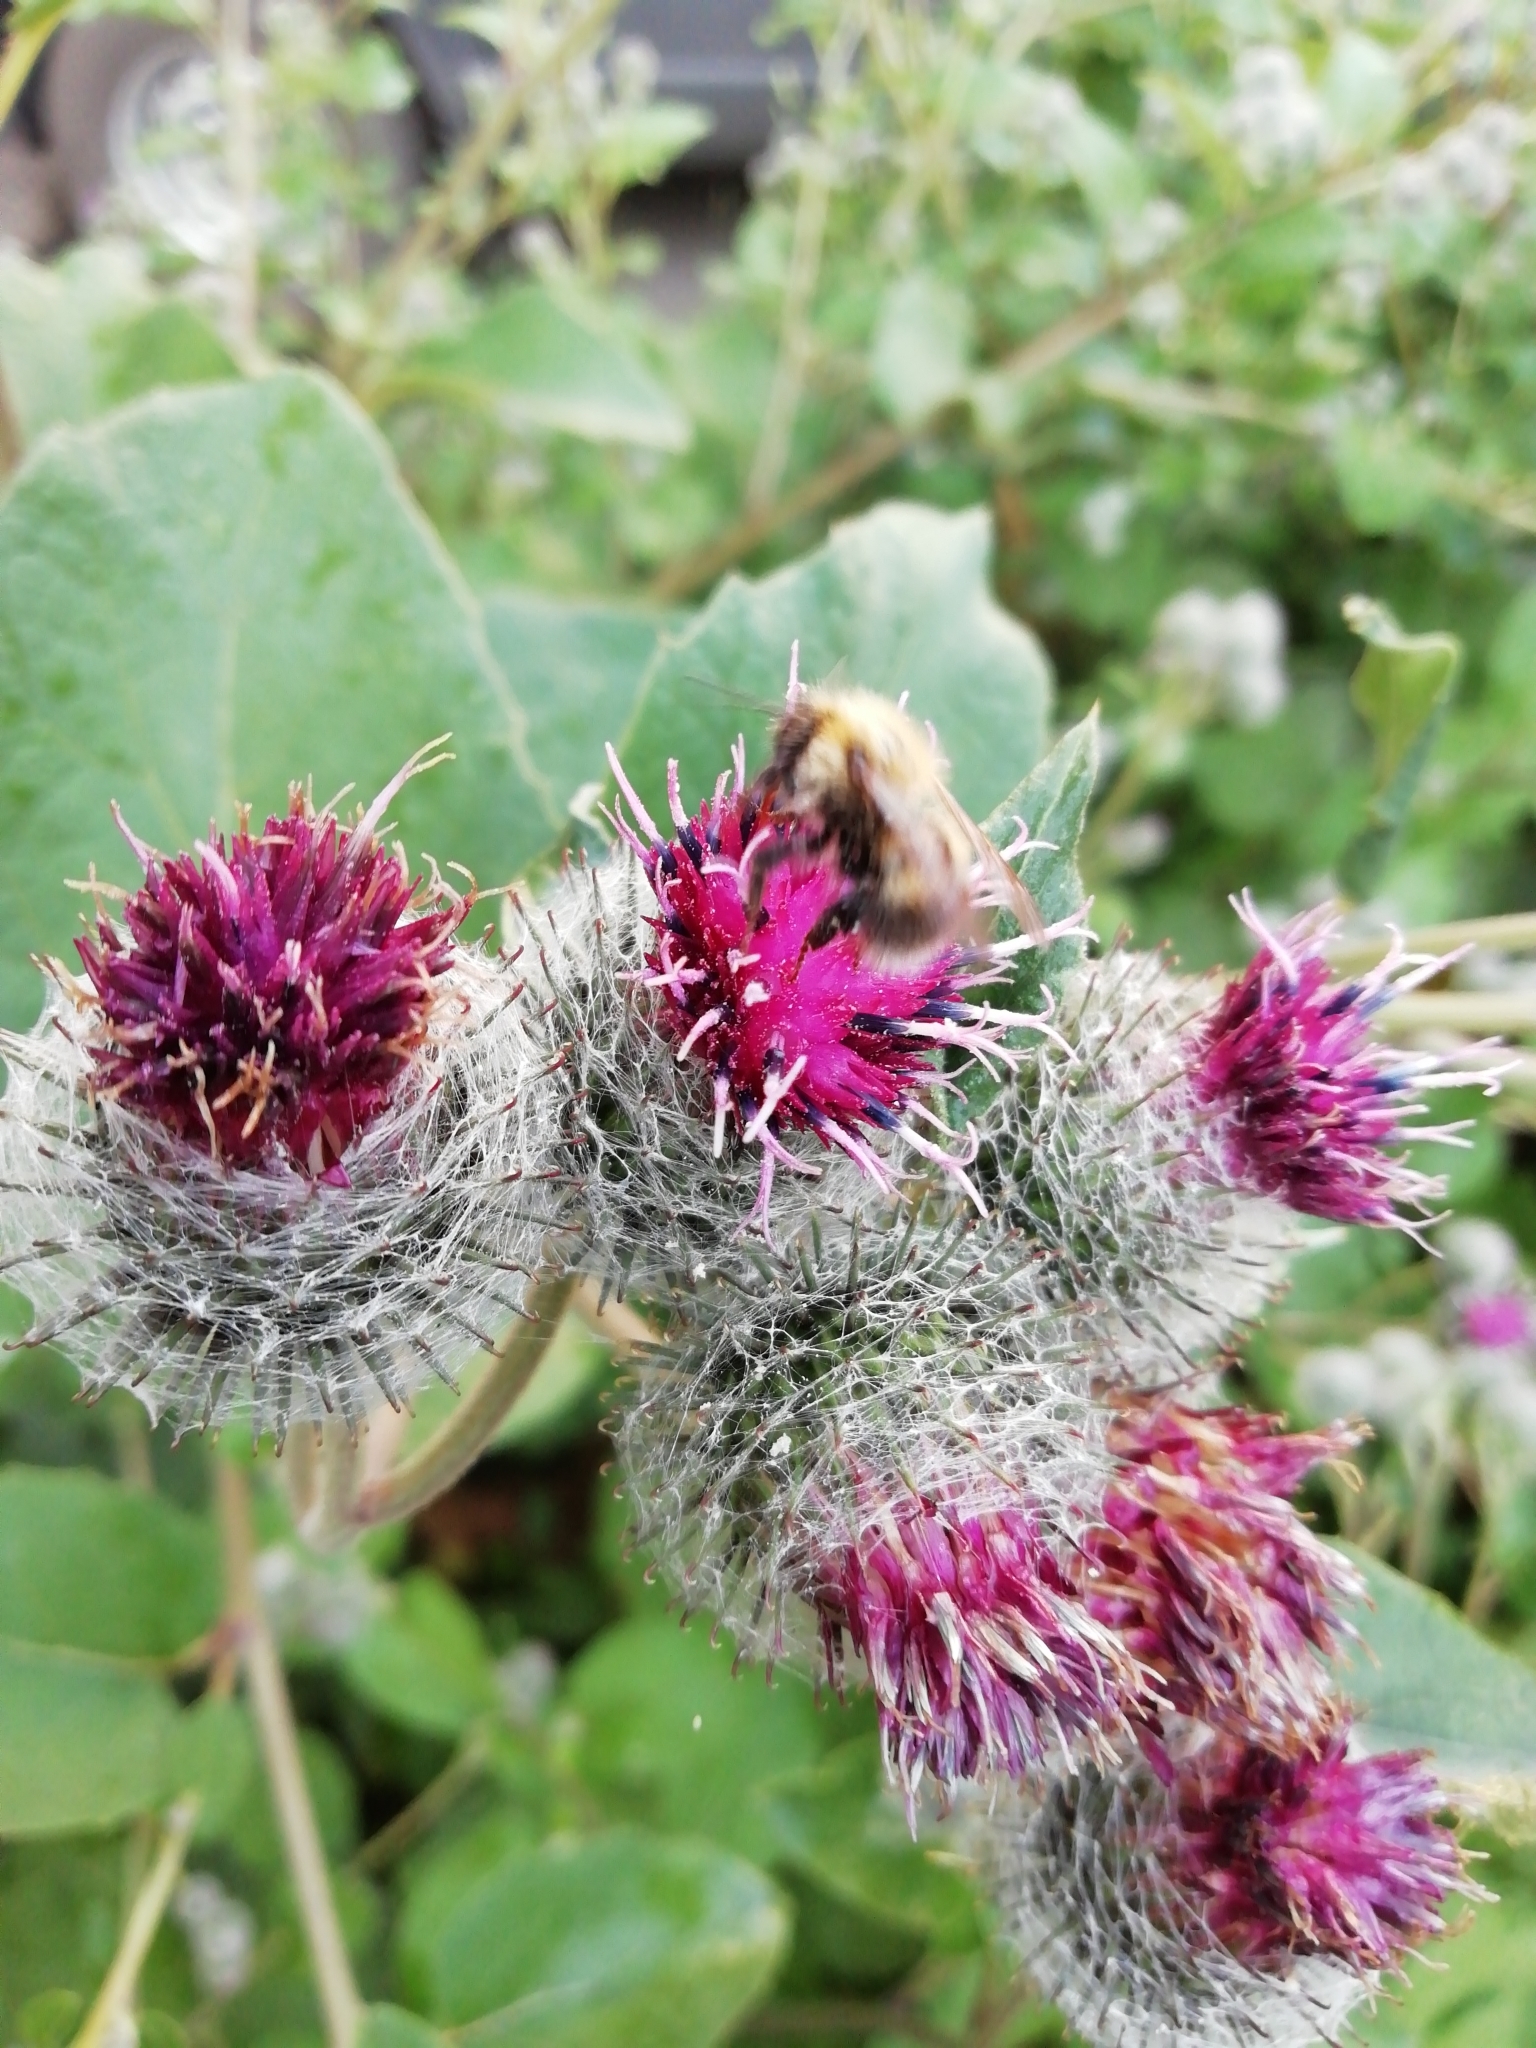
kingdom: Animalia
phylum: Arthropoda
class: Insecta
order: Hymenoptera
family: Apidae
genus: Bombus
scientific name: Bombus hypnorum
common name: New garden bumblebee
